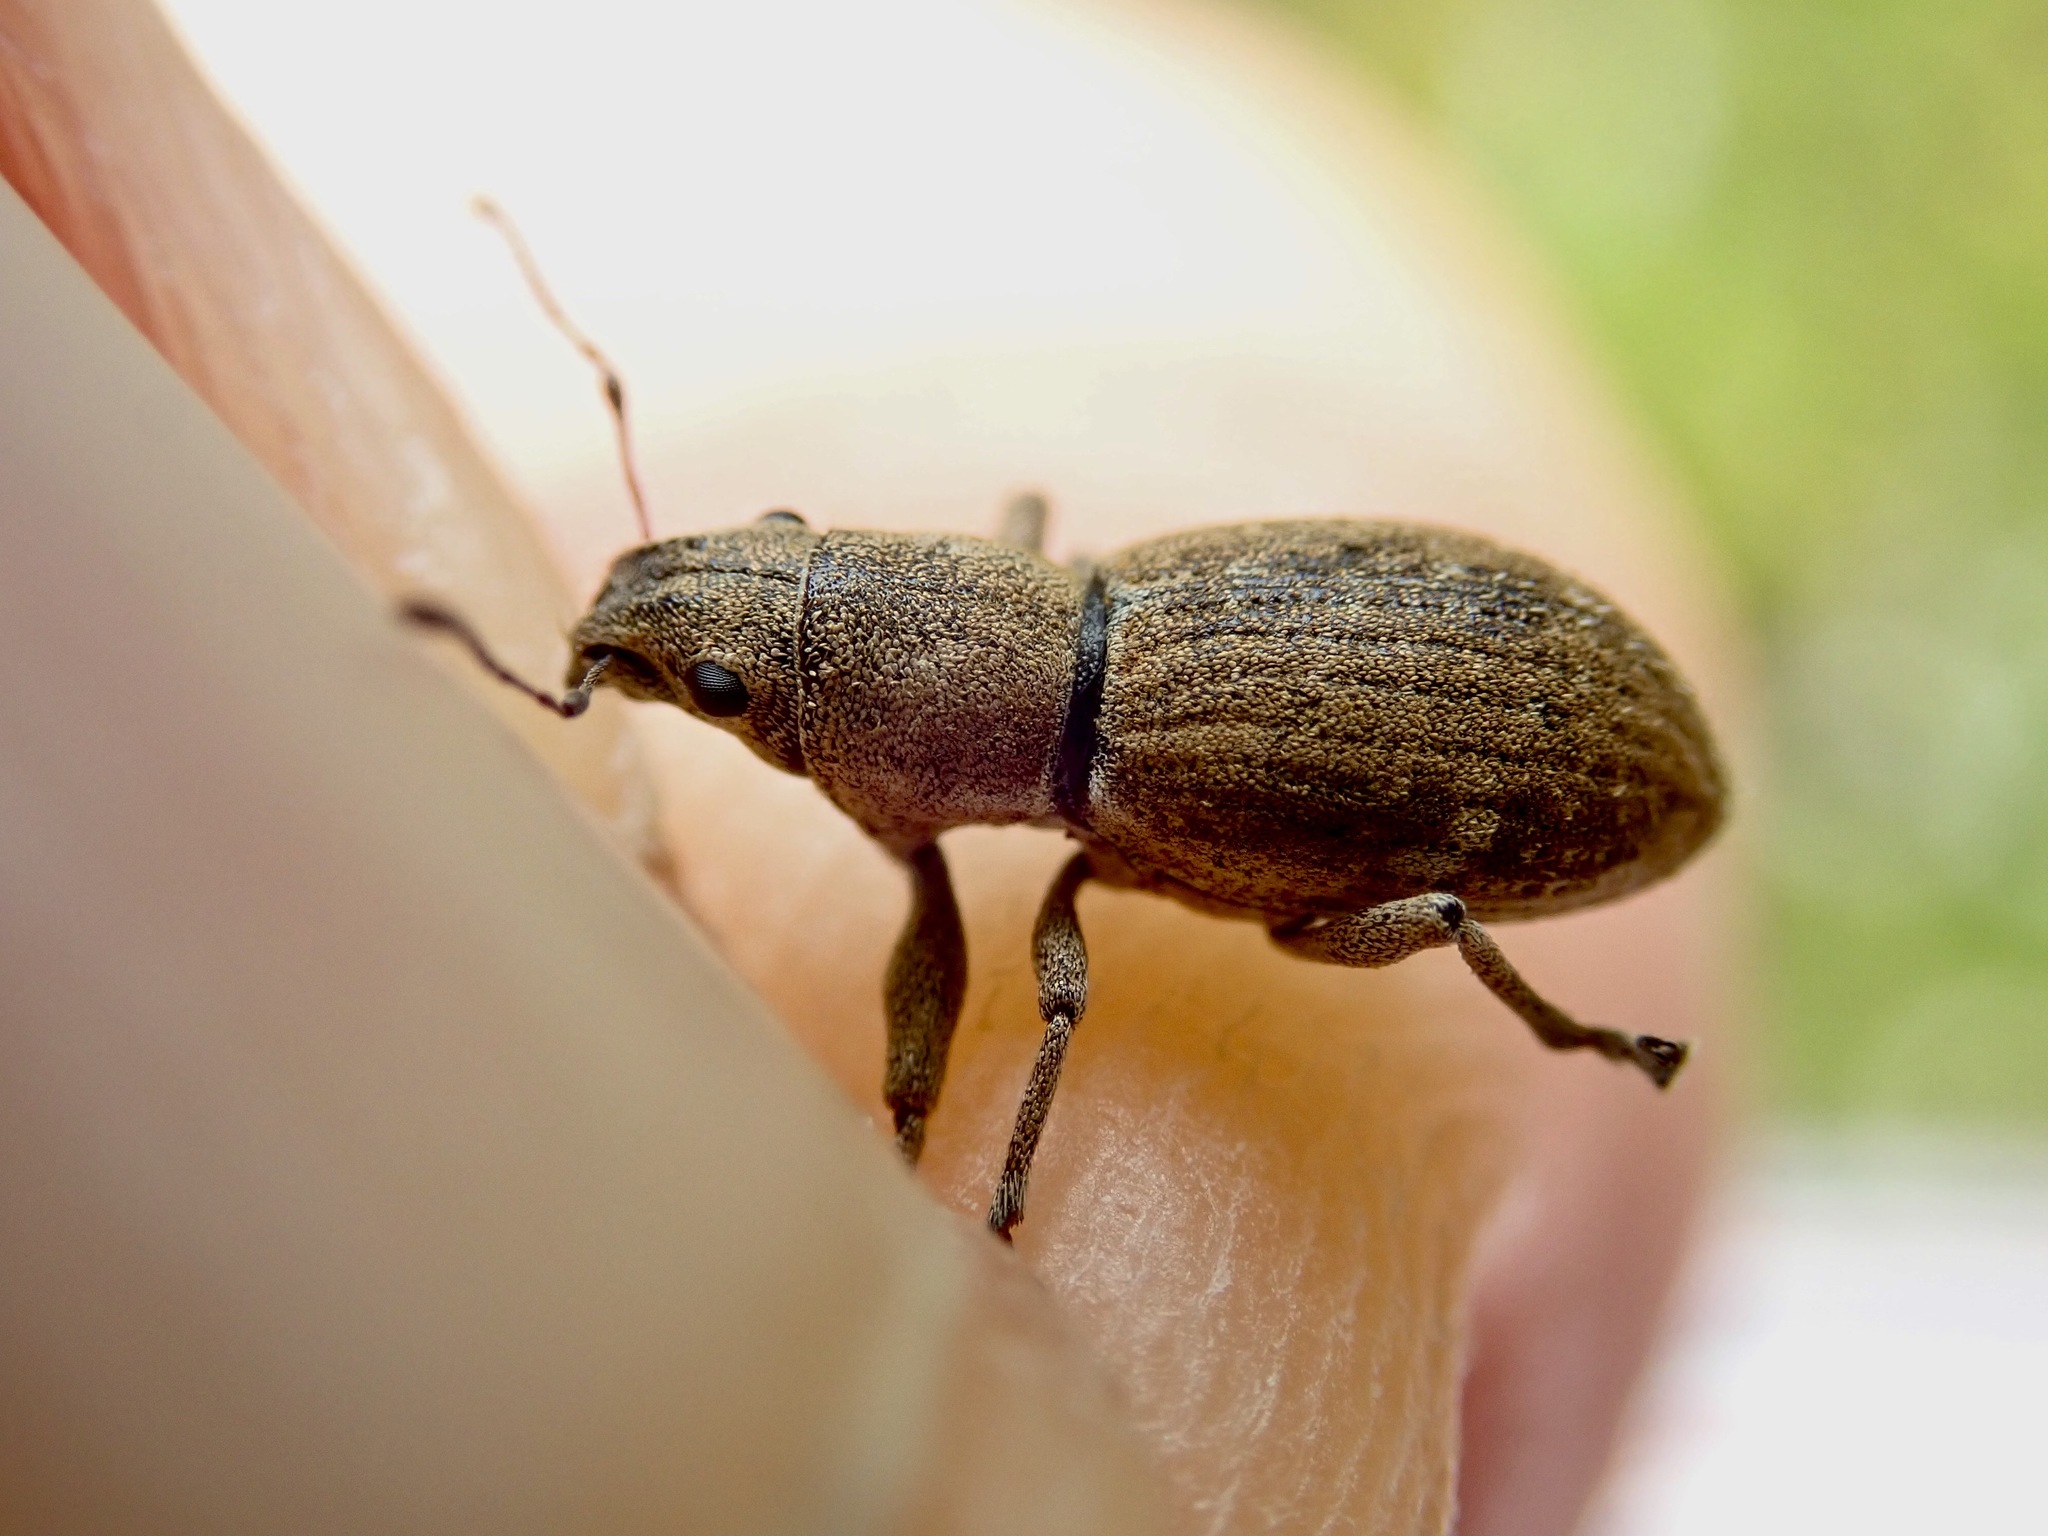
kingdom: Animalia
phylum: Arthropoda
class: Insecta
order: Coleoptera
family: Curculionidae
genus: Naupactus
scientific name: Naupactus cervinus
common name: Fuller rose beetle
